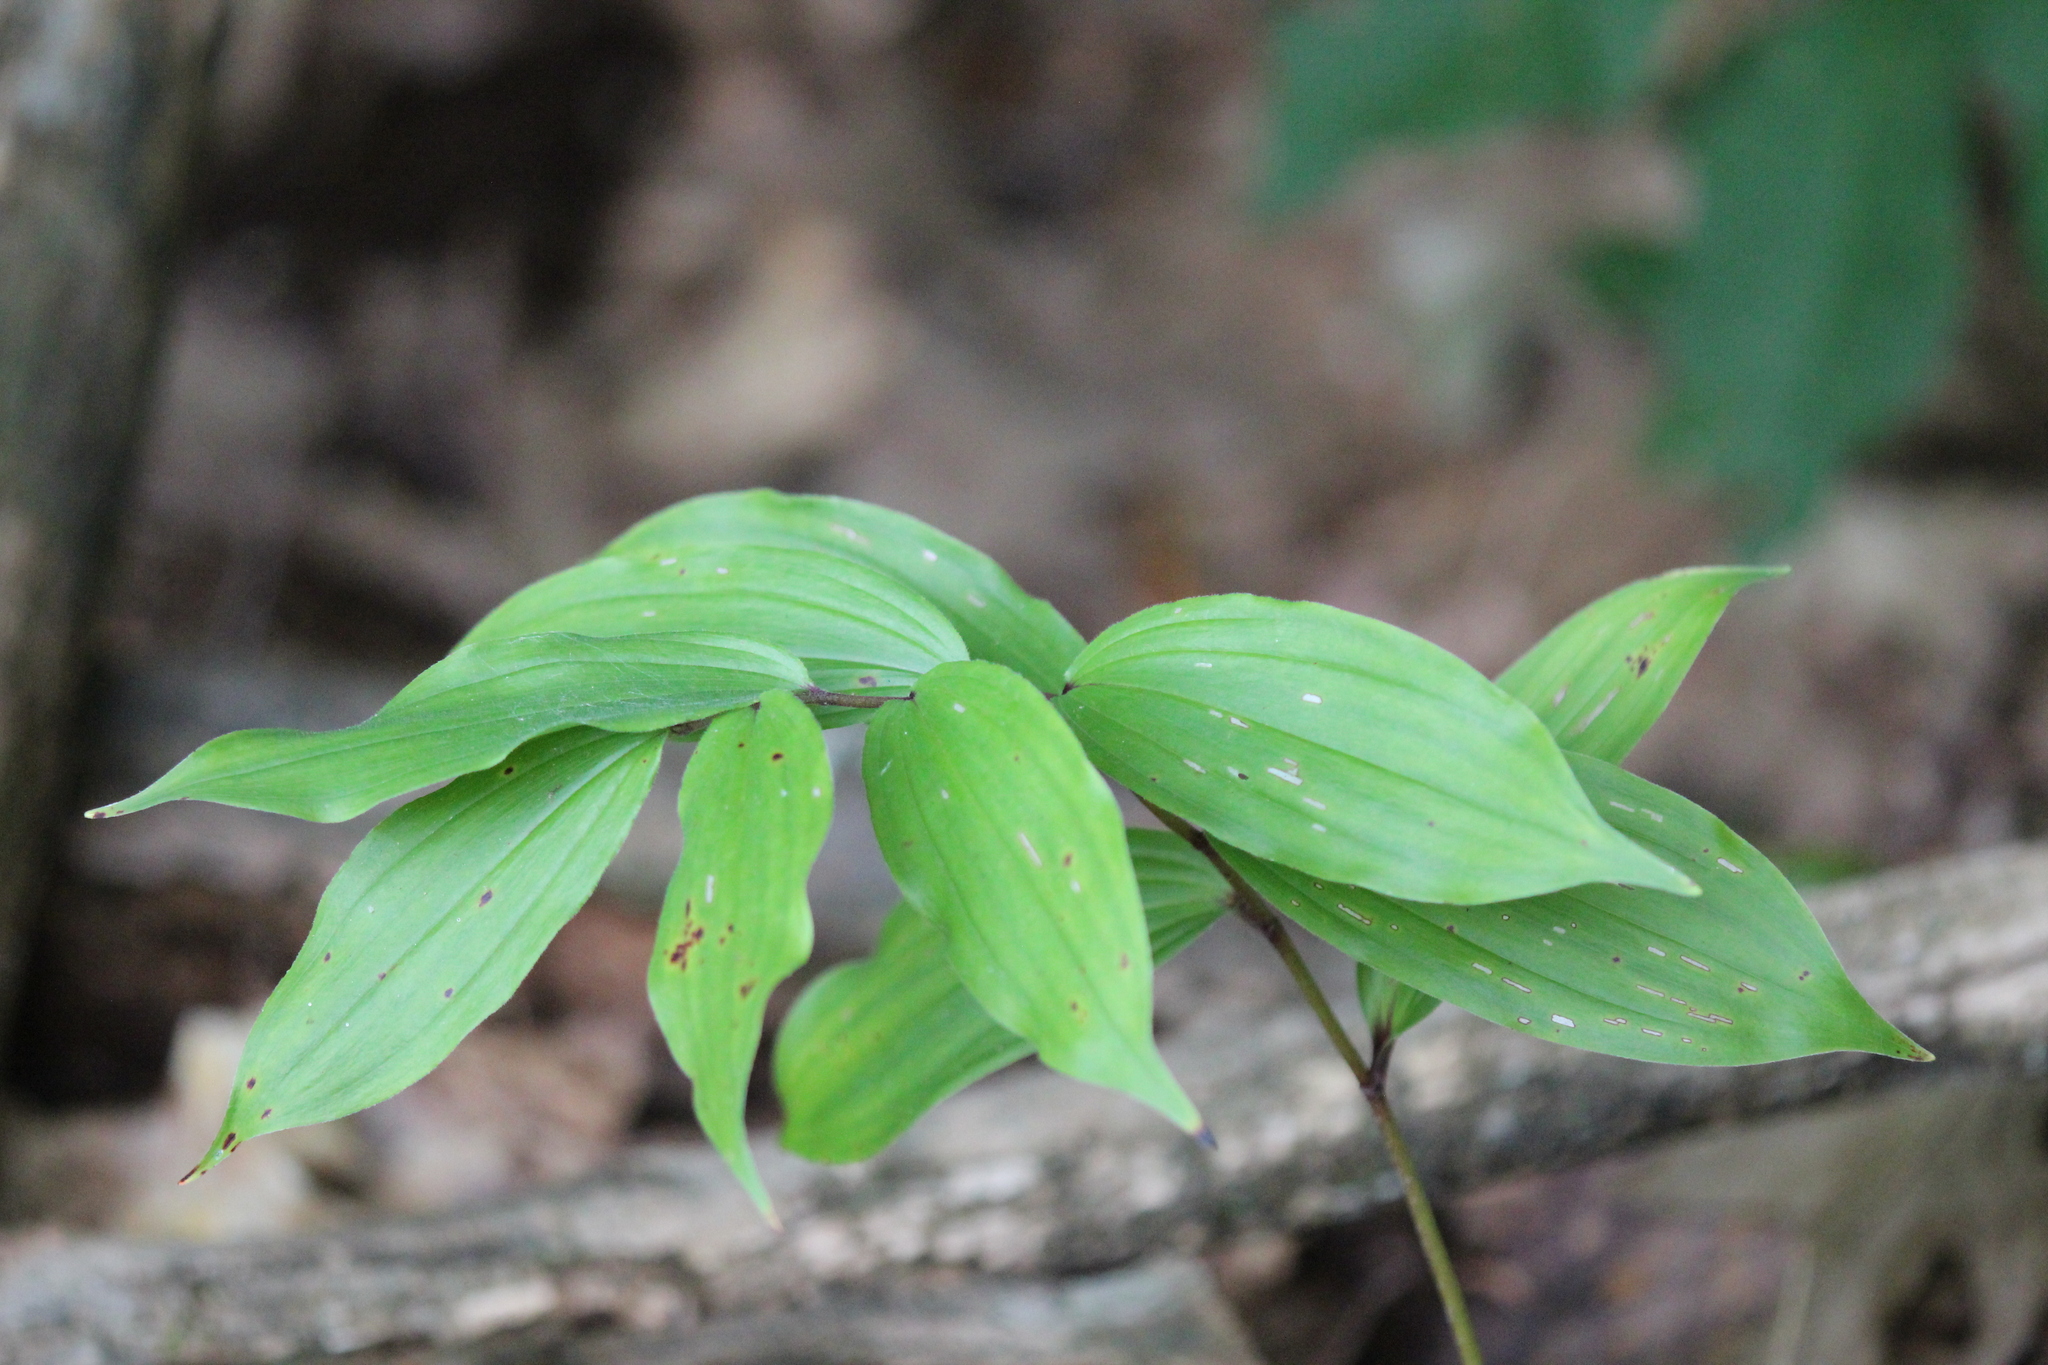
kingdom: Plantae
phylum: Tracheophyta
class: Liliopsida
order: Asparagales
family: Asparagaceae
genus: Maianthemum
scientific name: Maianthemum racemosum
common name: False spikenard
